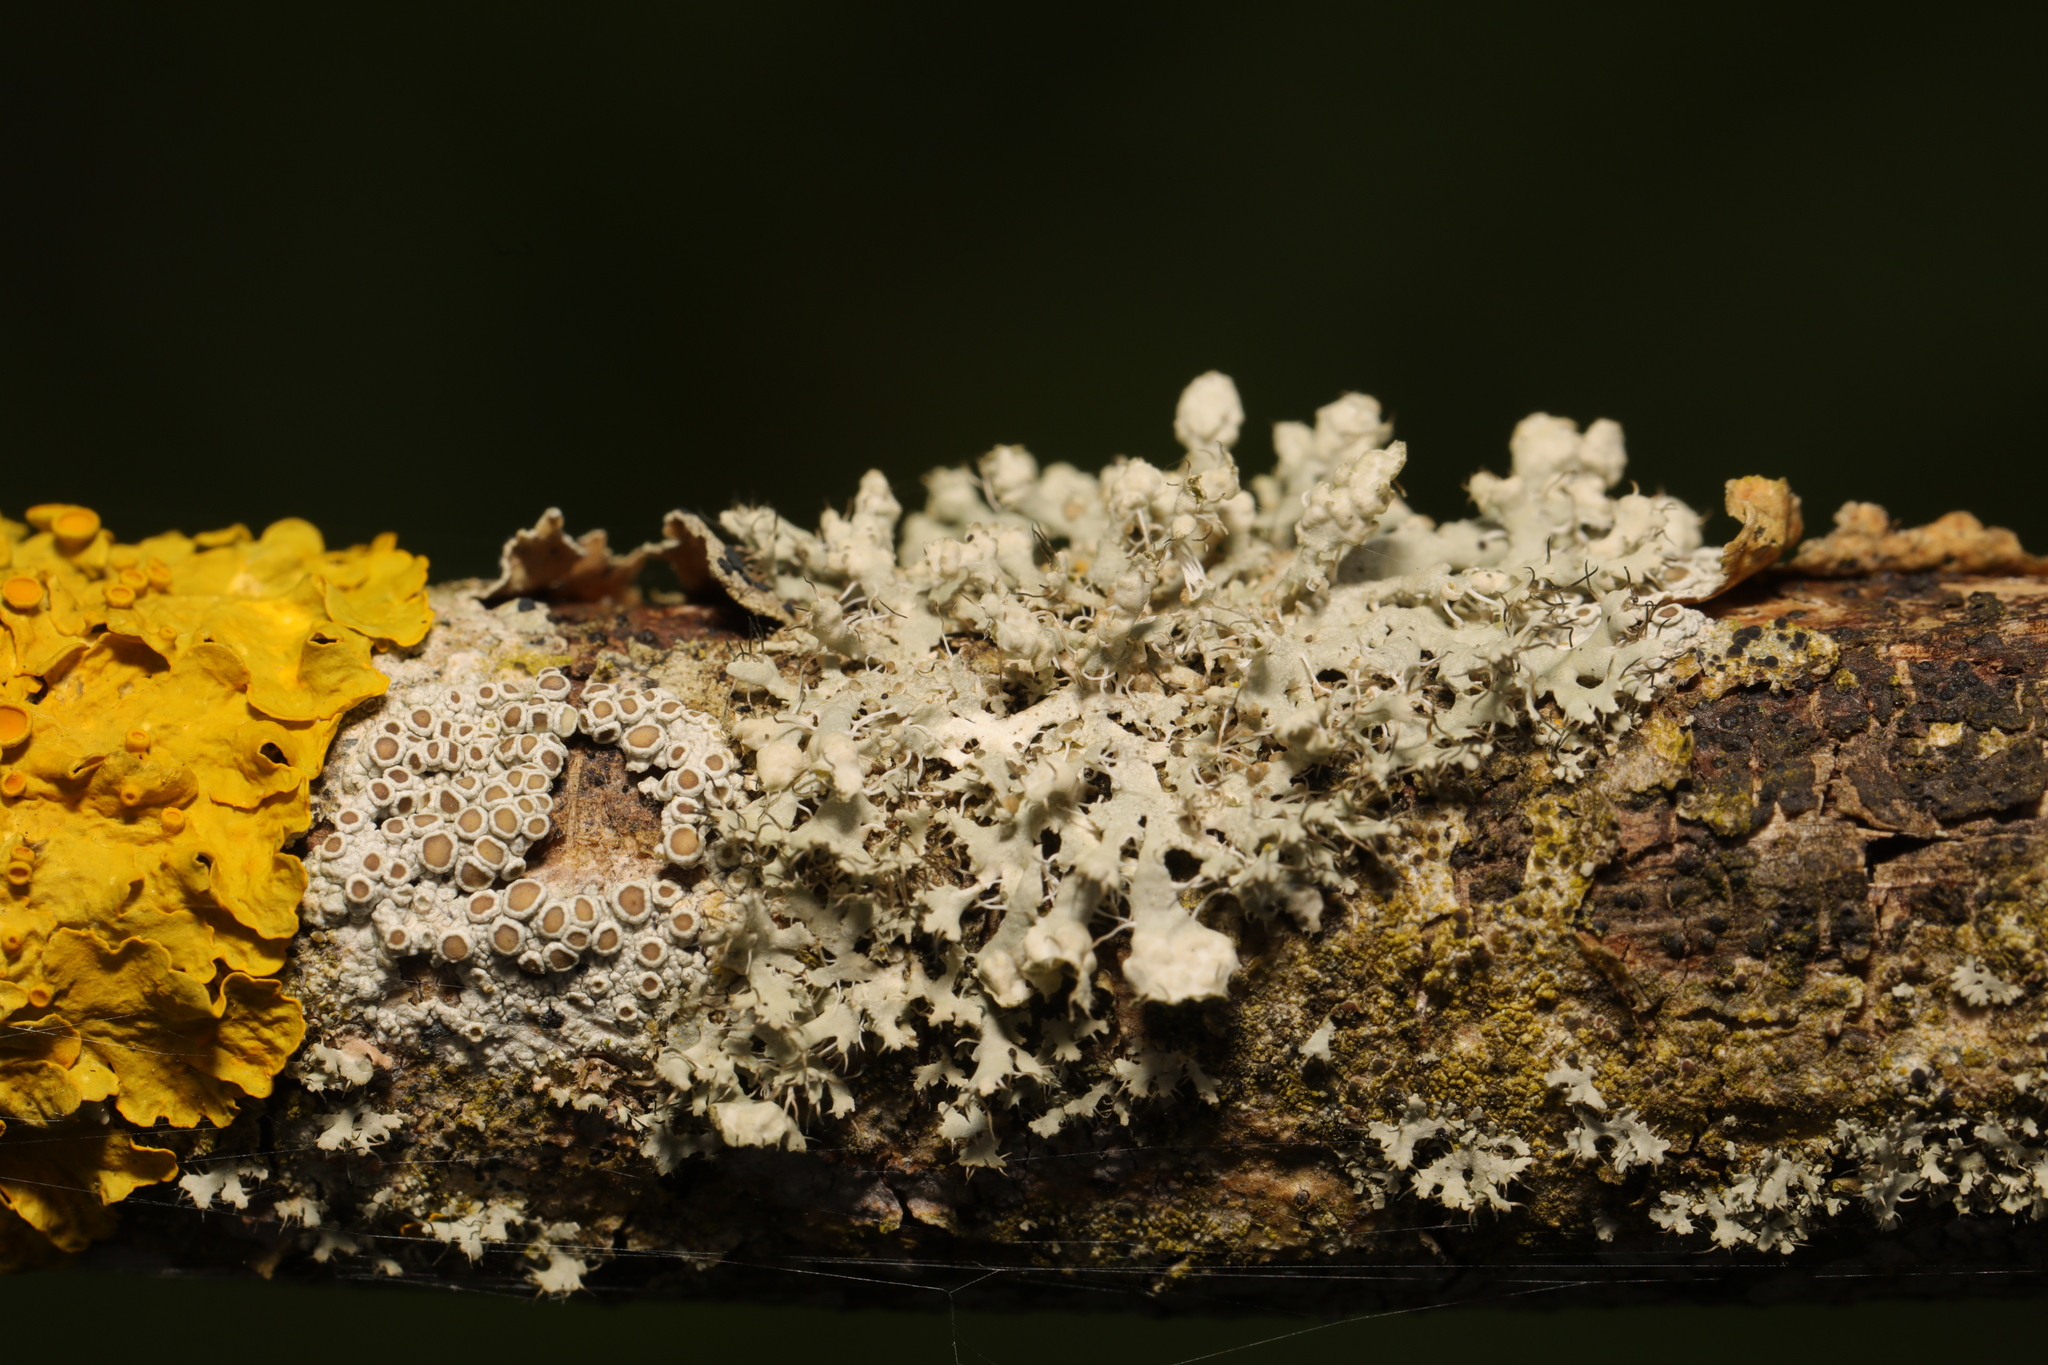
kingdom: Fungi
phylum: Ascomycota
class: Lecanoromycetes
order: Caliciales
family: Physciaceae
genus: Physcia
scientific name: Physcia adscendens
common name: Hooded rosette lichen
